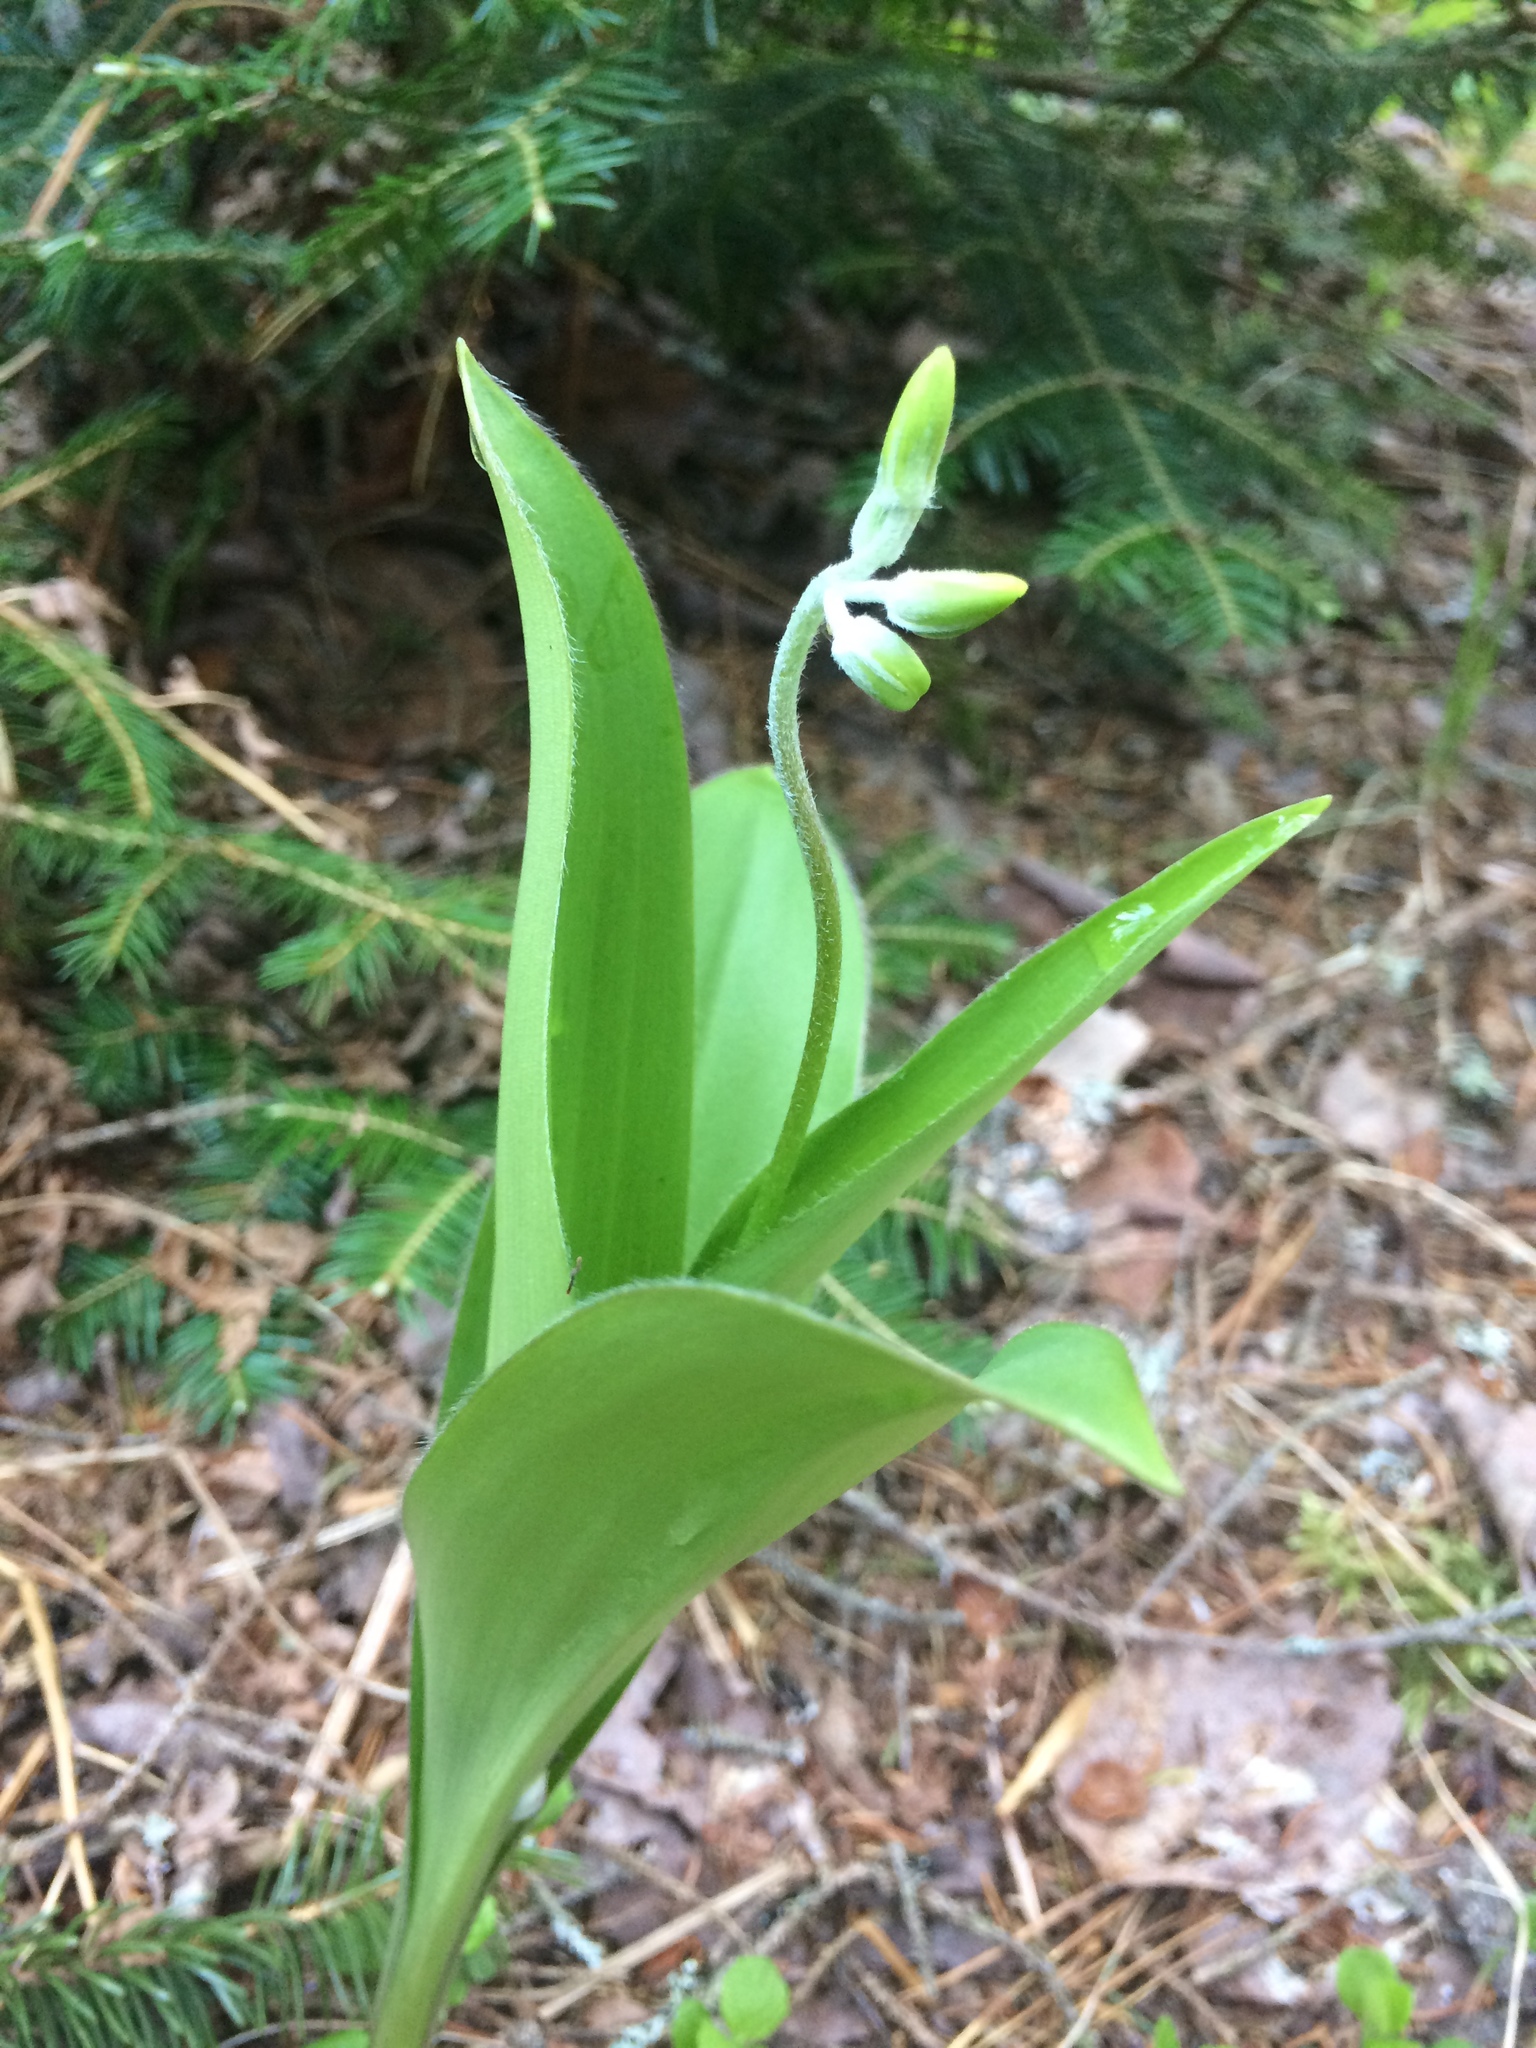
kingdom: Plantae
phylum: Tracheophyta
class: Liliopsida
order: Liliales
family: Liliaceae
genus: Clintonia
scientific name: Clintonia borealis
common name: Yellow clintonia
